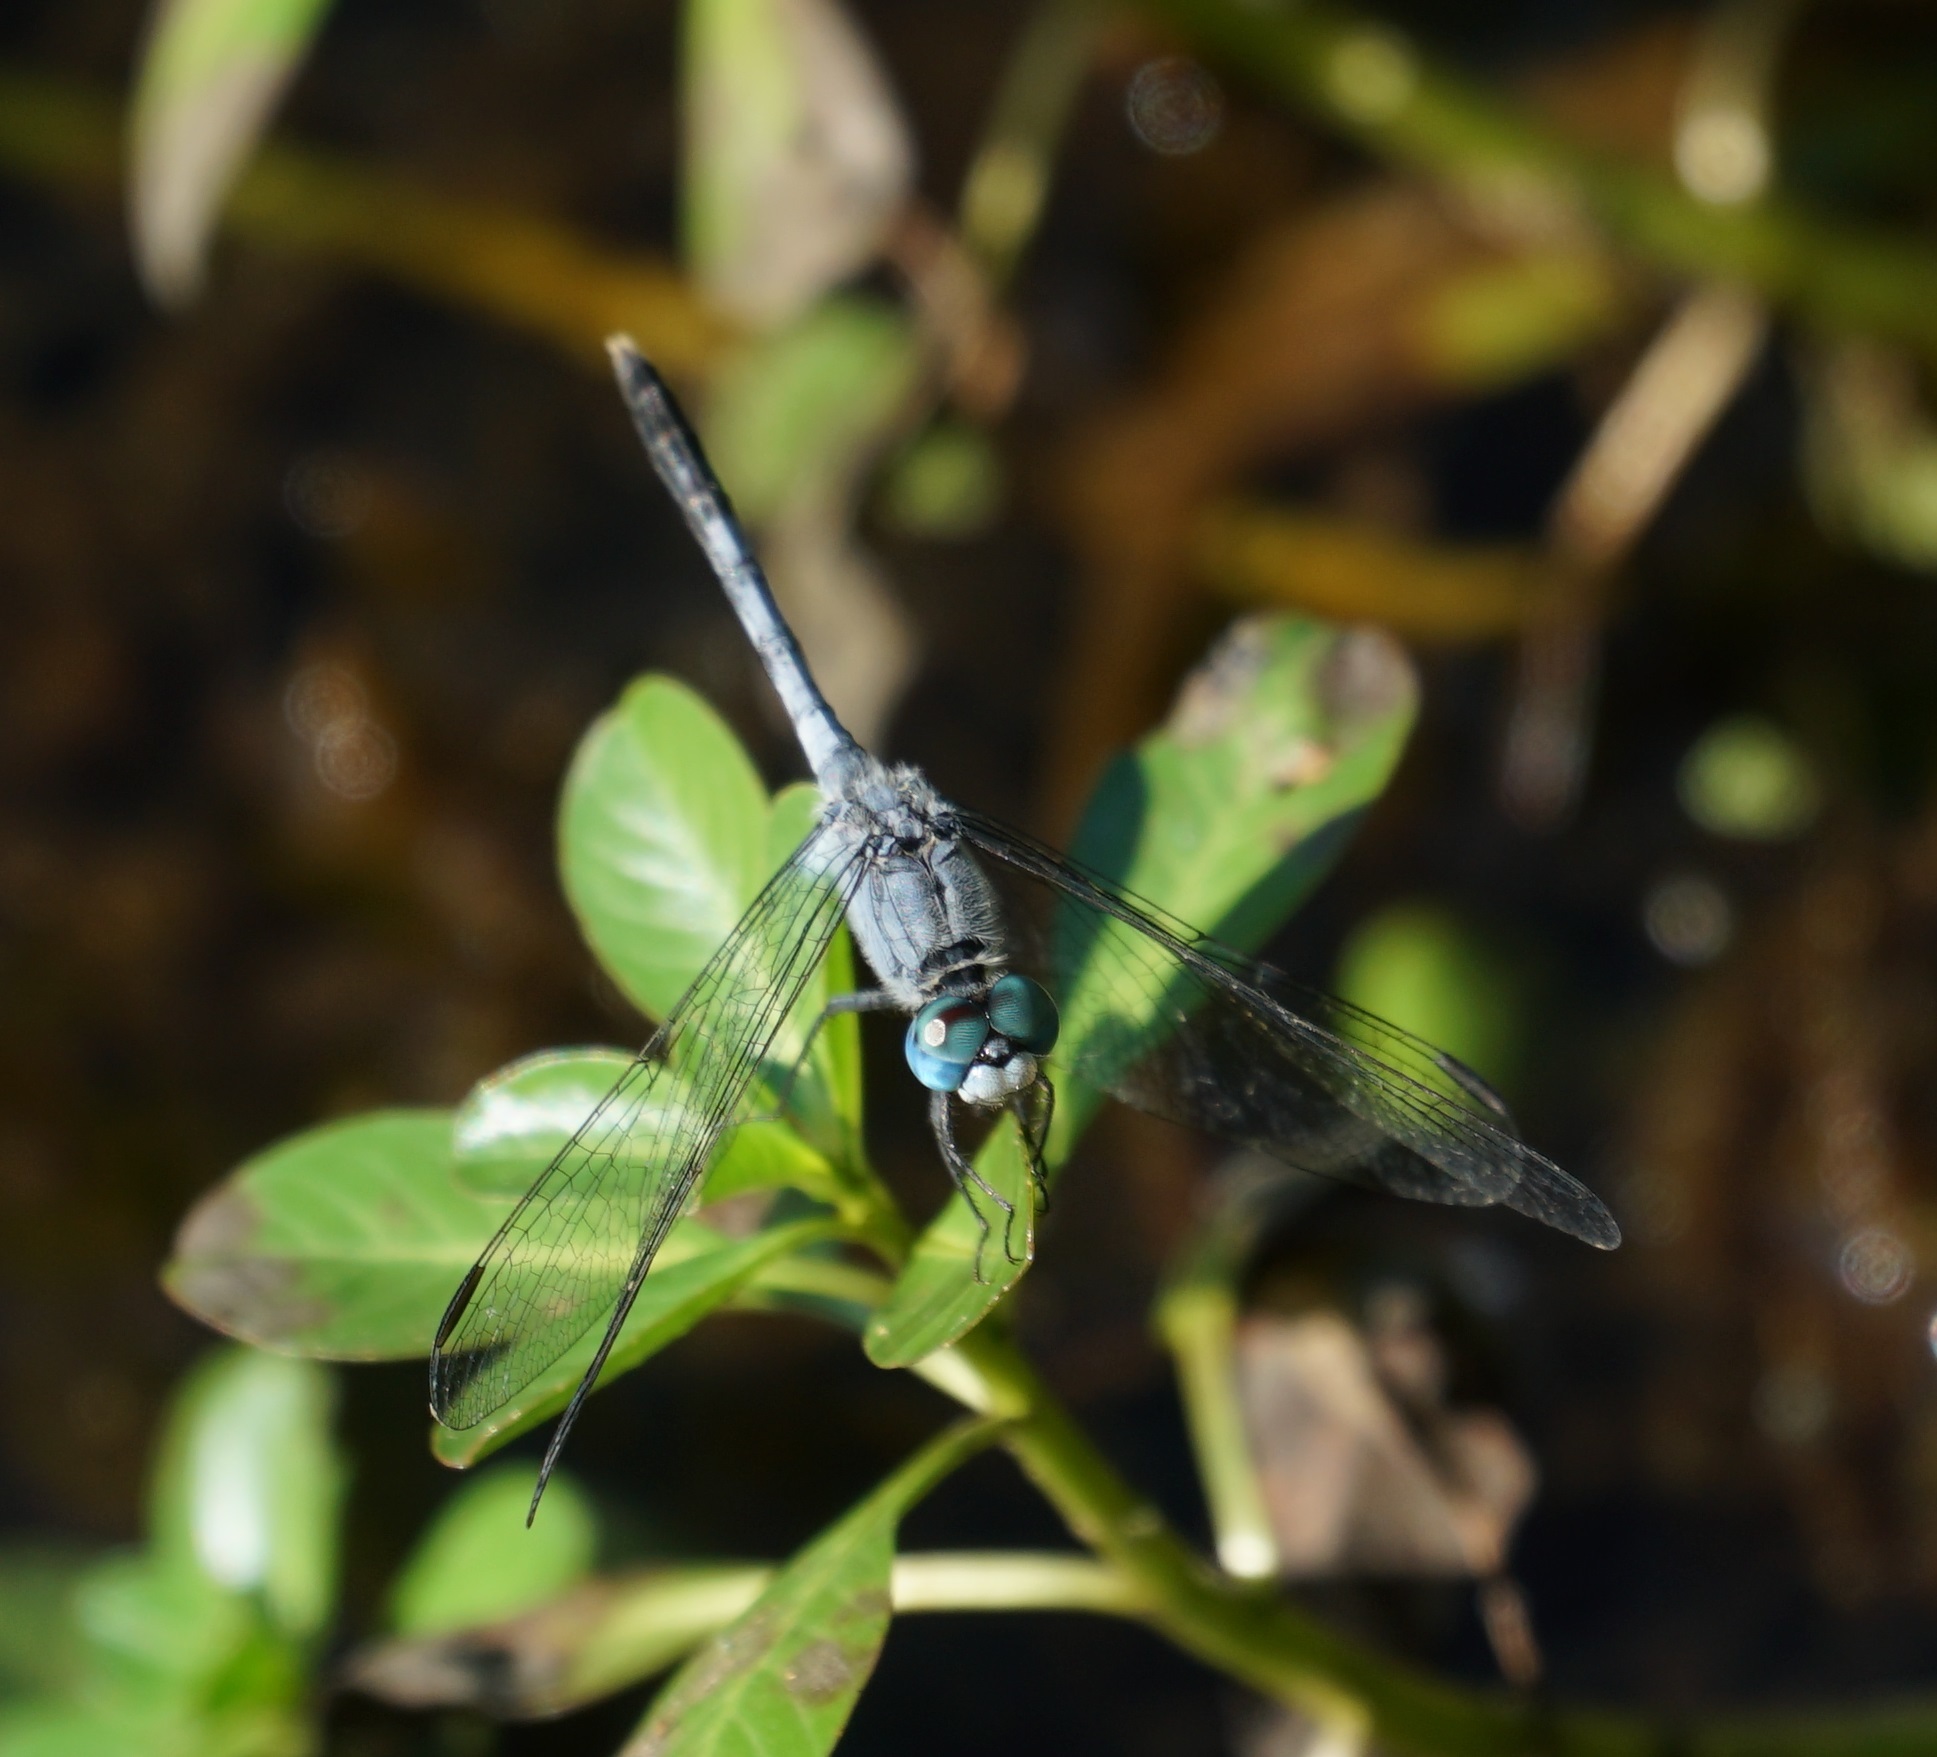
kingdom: Animalia
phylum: Arthropoda
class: Insecta
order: Odonata
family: Libellulidae
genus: Diplacodes
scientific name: Diplacodes trivialis
